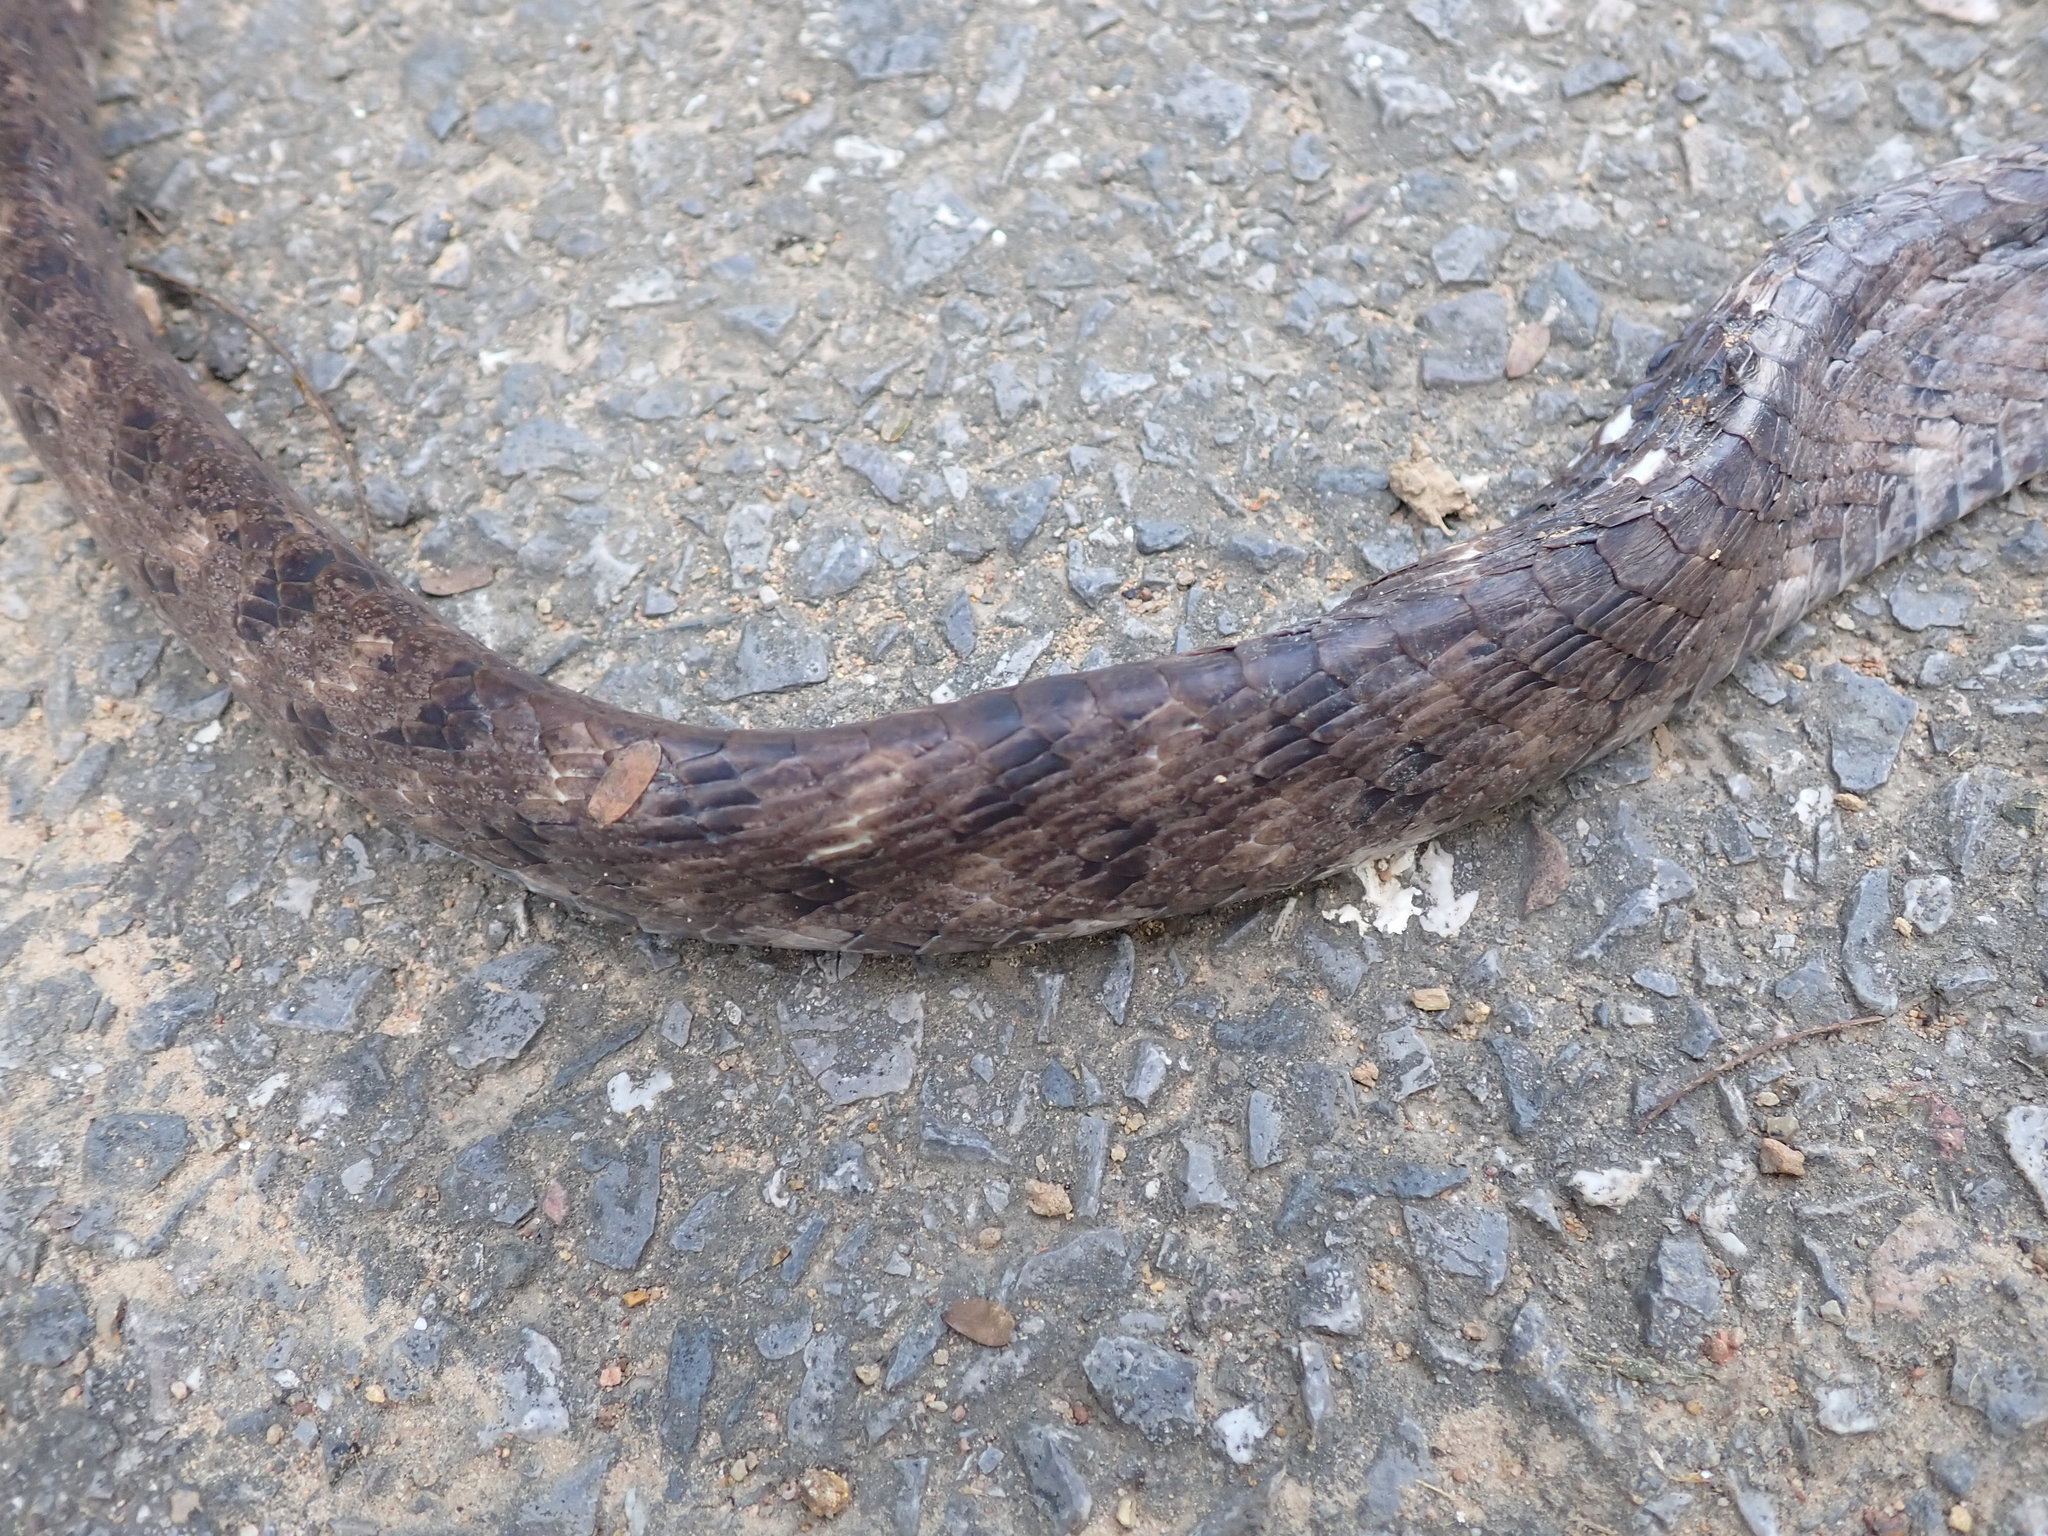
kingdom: Animalia
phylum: Chordata
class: Squamata
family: Colubridae
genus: Boiga
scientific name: Boiga siamensis
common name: Eyed cat snake
